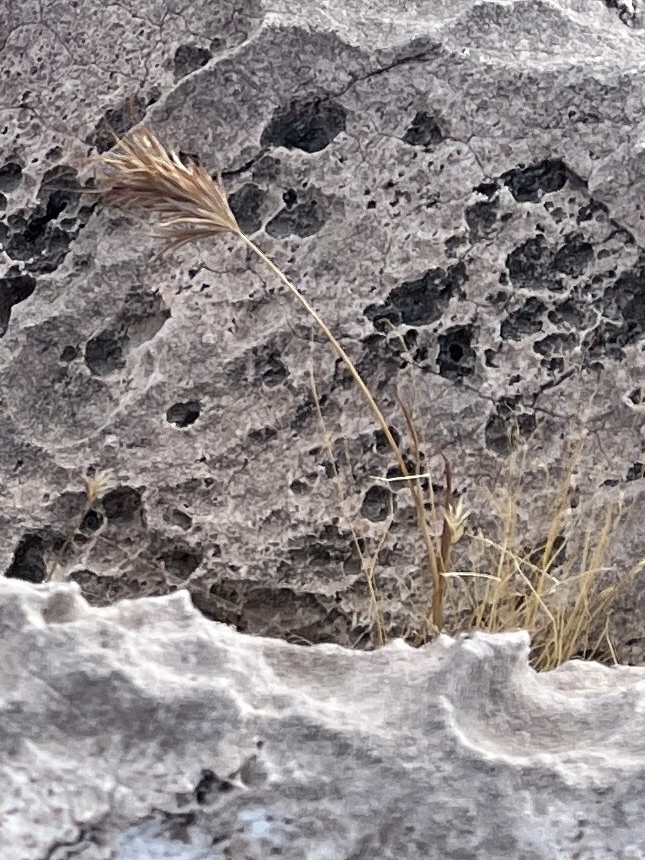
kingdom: Plantae
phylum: Tracheophyta
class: Liliopsida
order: Poales
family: Poaceae
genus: Bromus
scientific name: Bromus rubens
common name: Red brome
